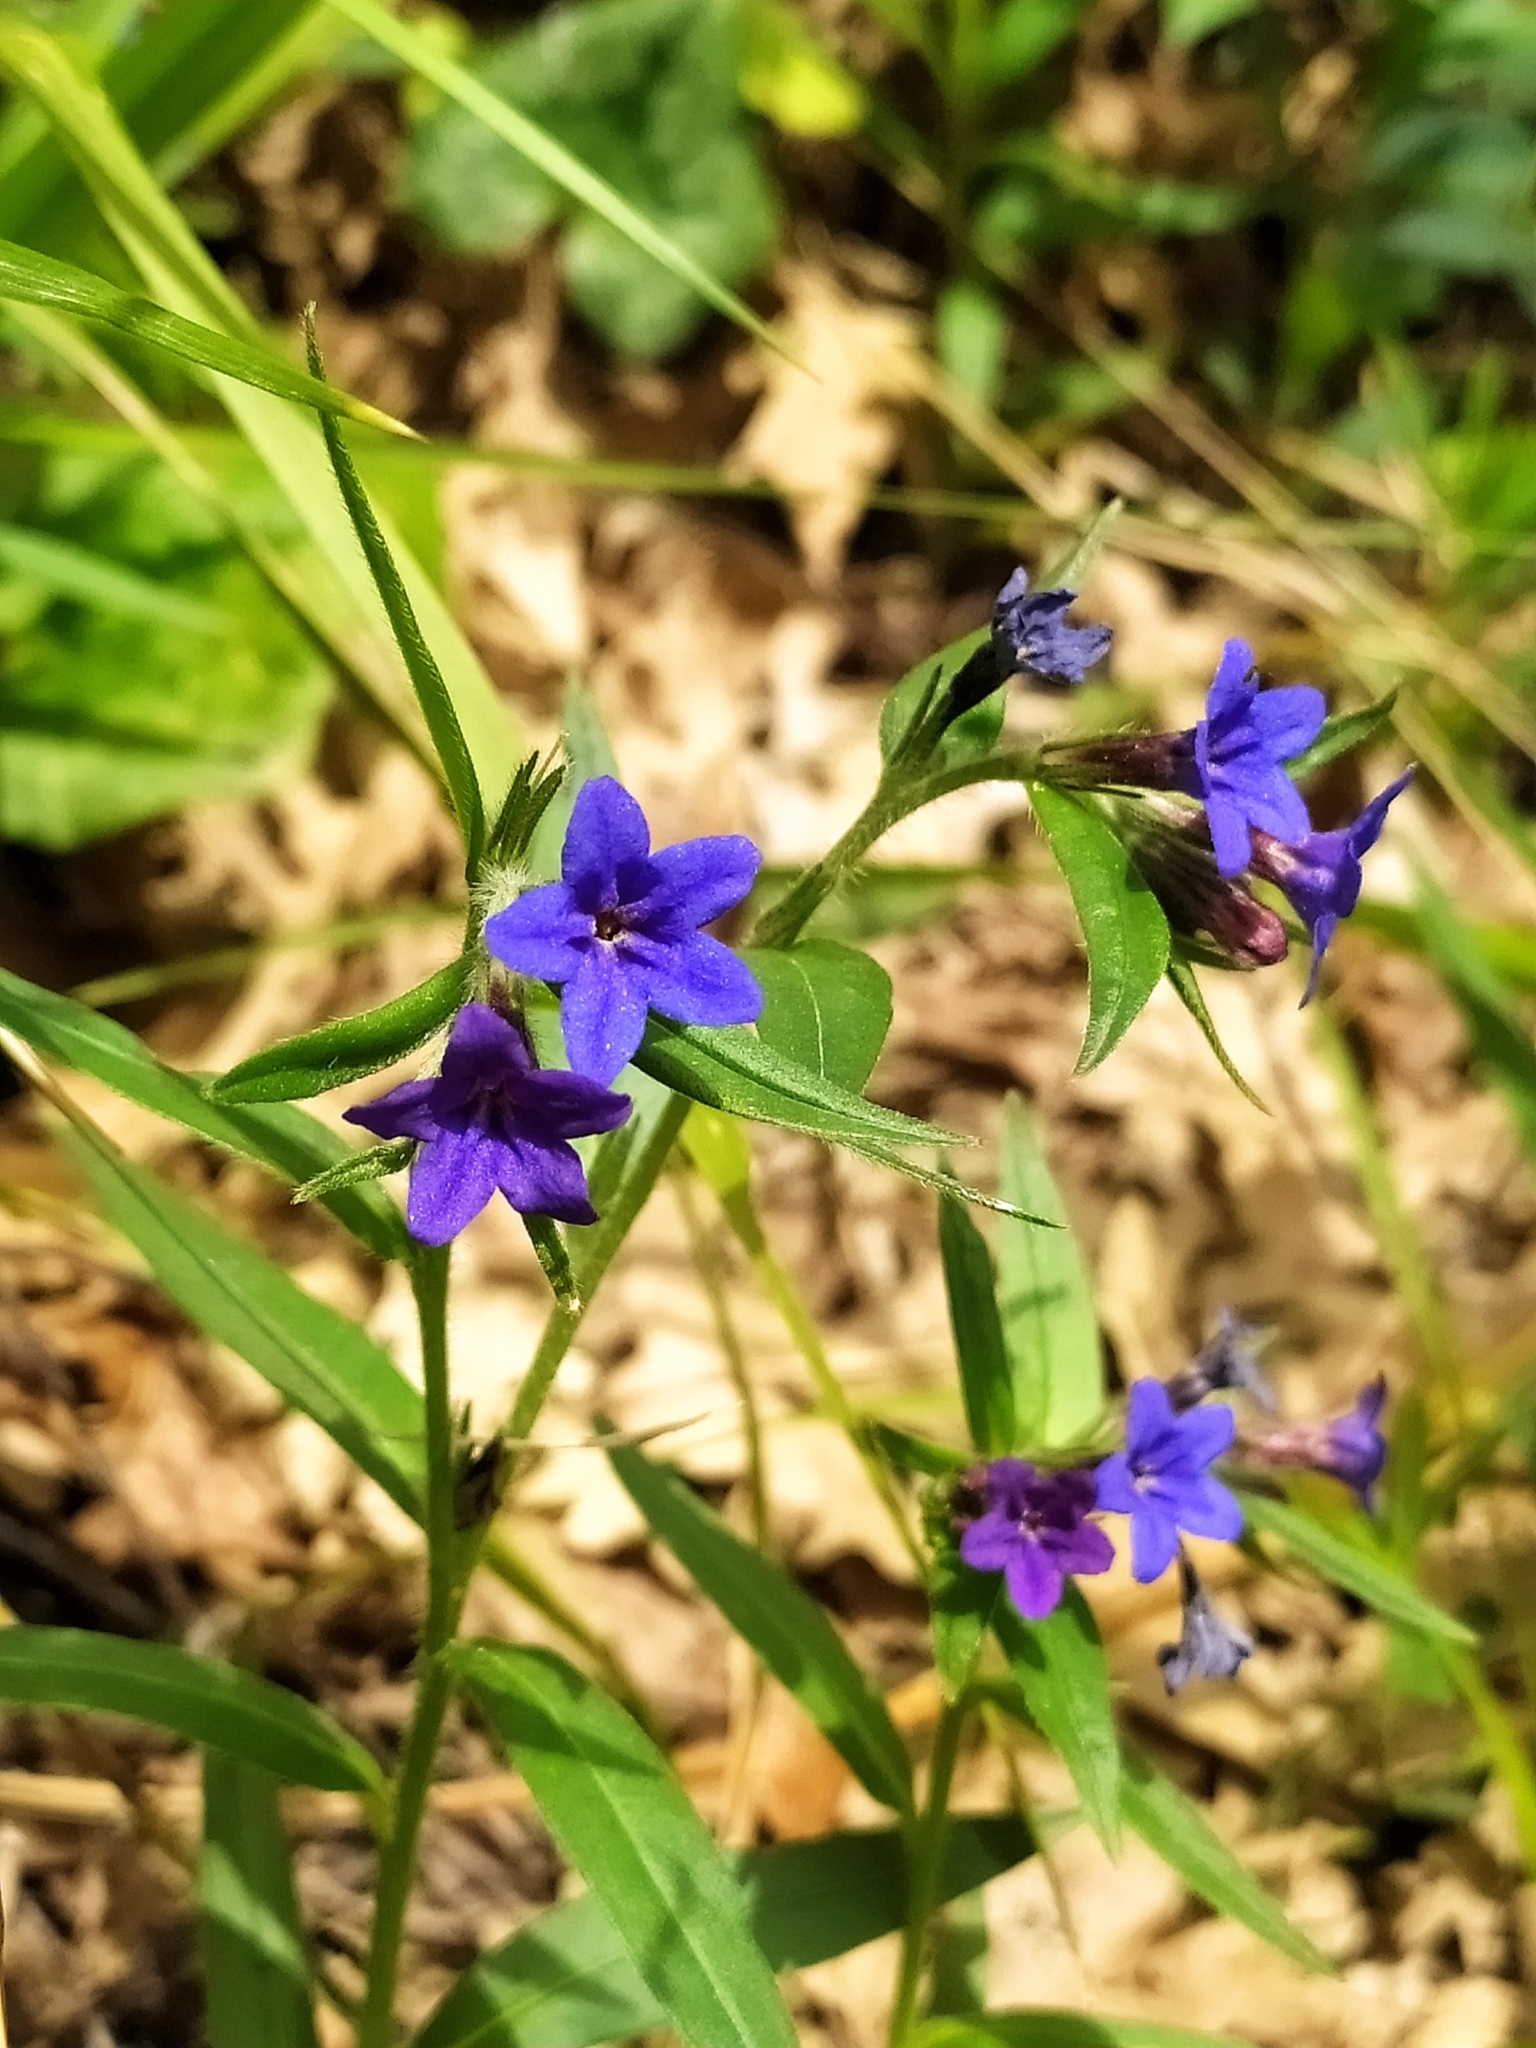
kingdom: Plantae
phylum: Tracheophyta
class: Magnoliopsida
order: Boraginales
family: Boraginaceae
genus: Aegonychon
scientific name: Aegonychon purpurocaeruleum
